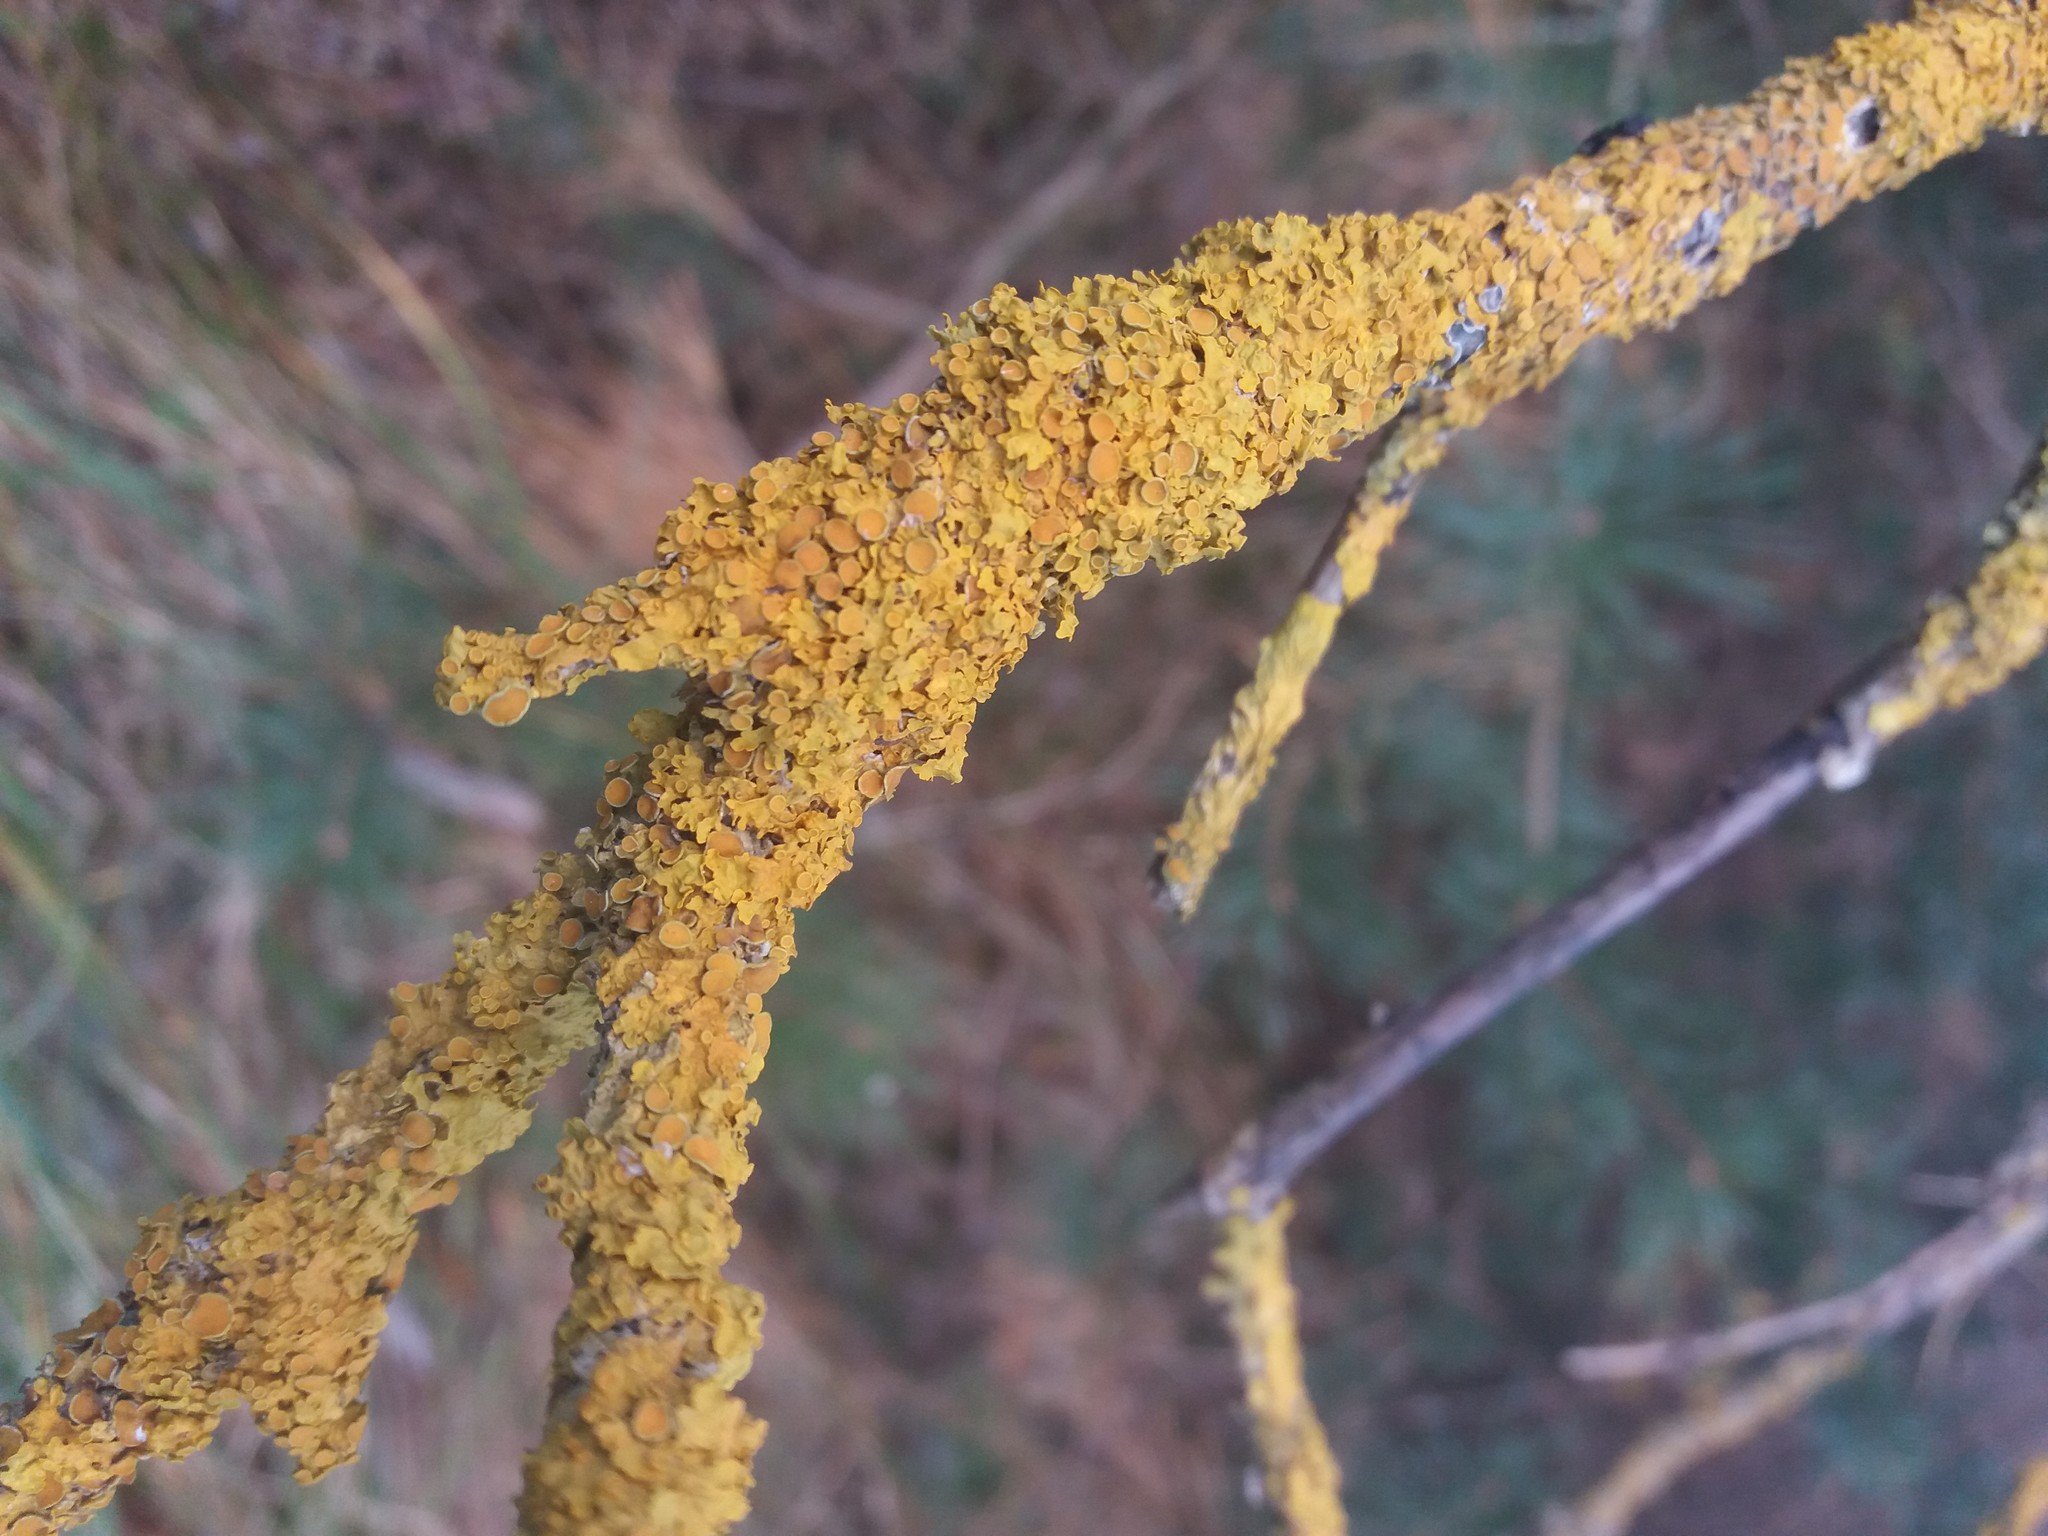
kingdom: Fungi
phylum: Ascomycota
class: Lecanoromycetes
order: Teloschistales
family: Teloschistaceae
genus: Xanthoria
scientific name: Xanthoria parietina
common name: Common orange lichen
